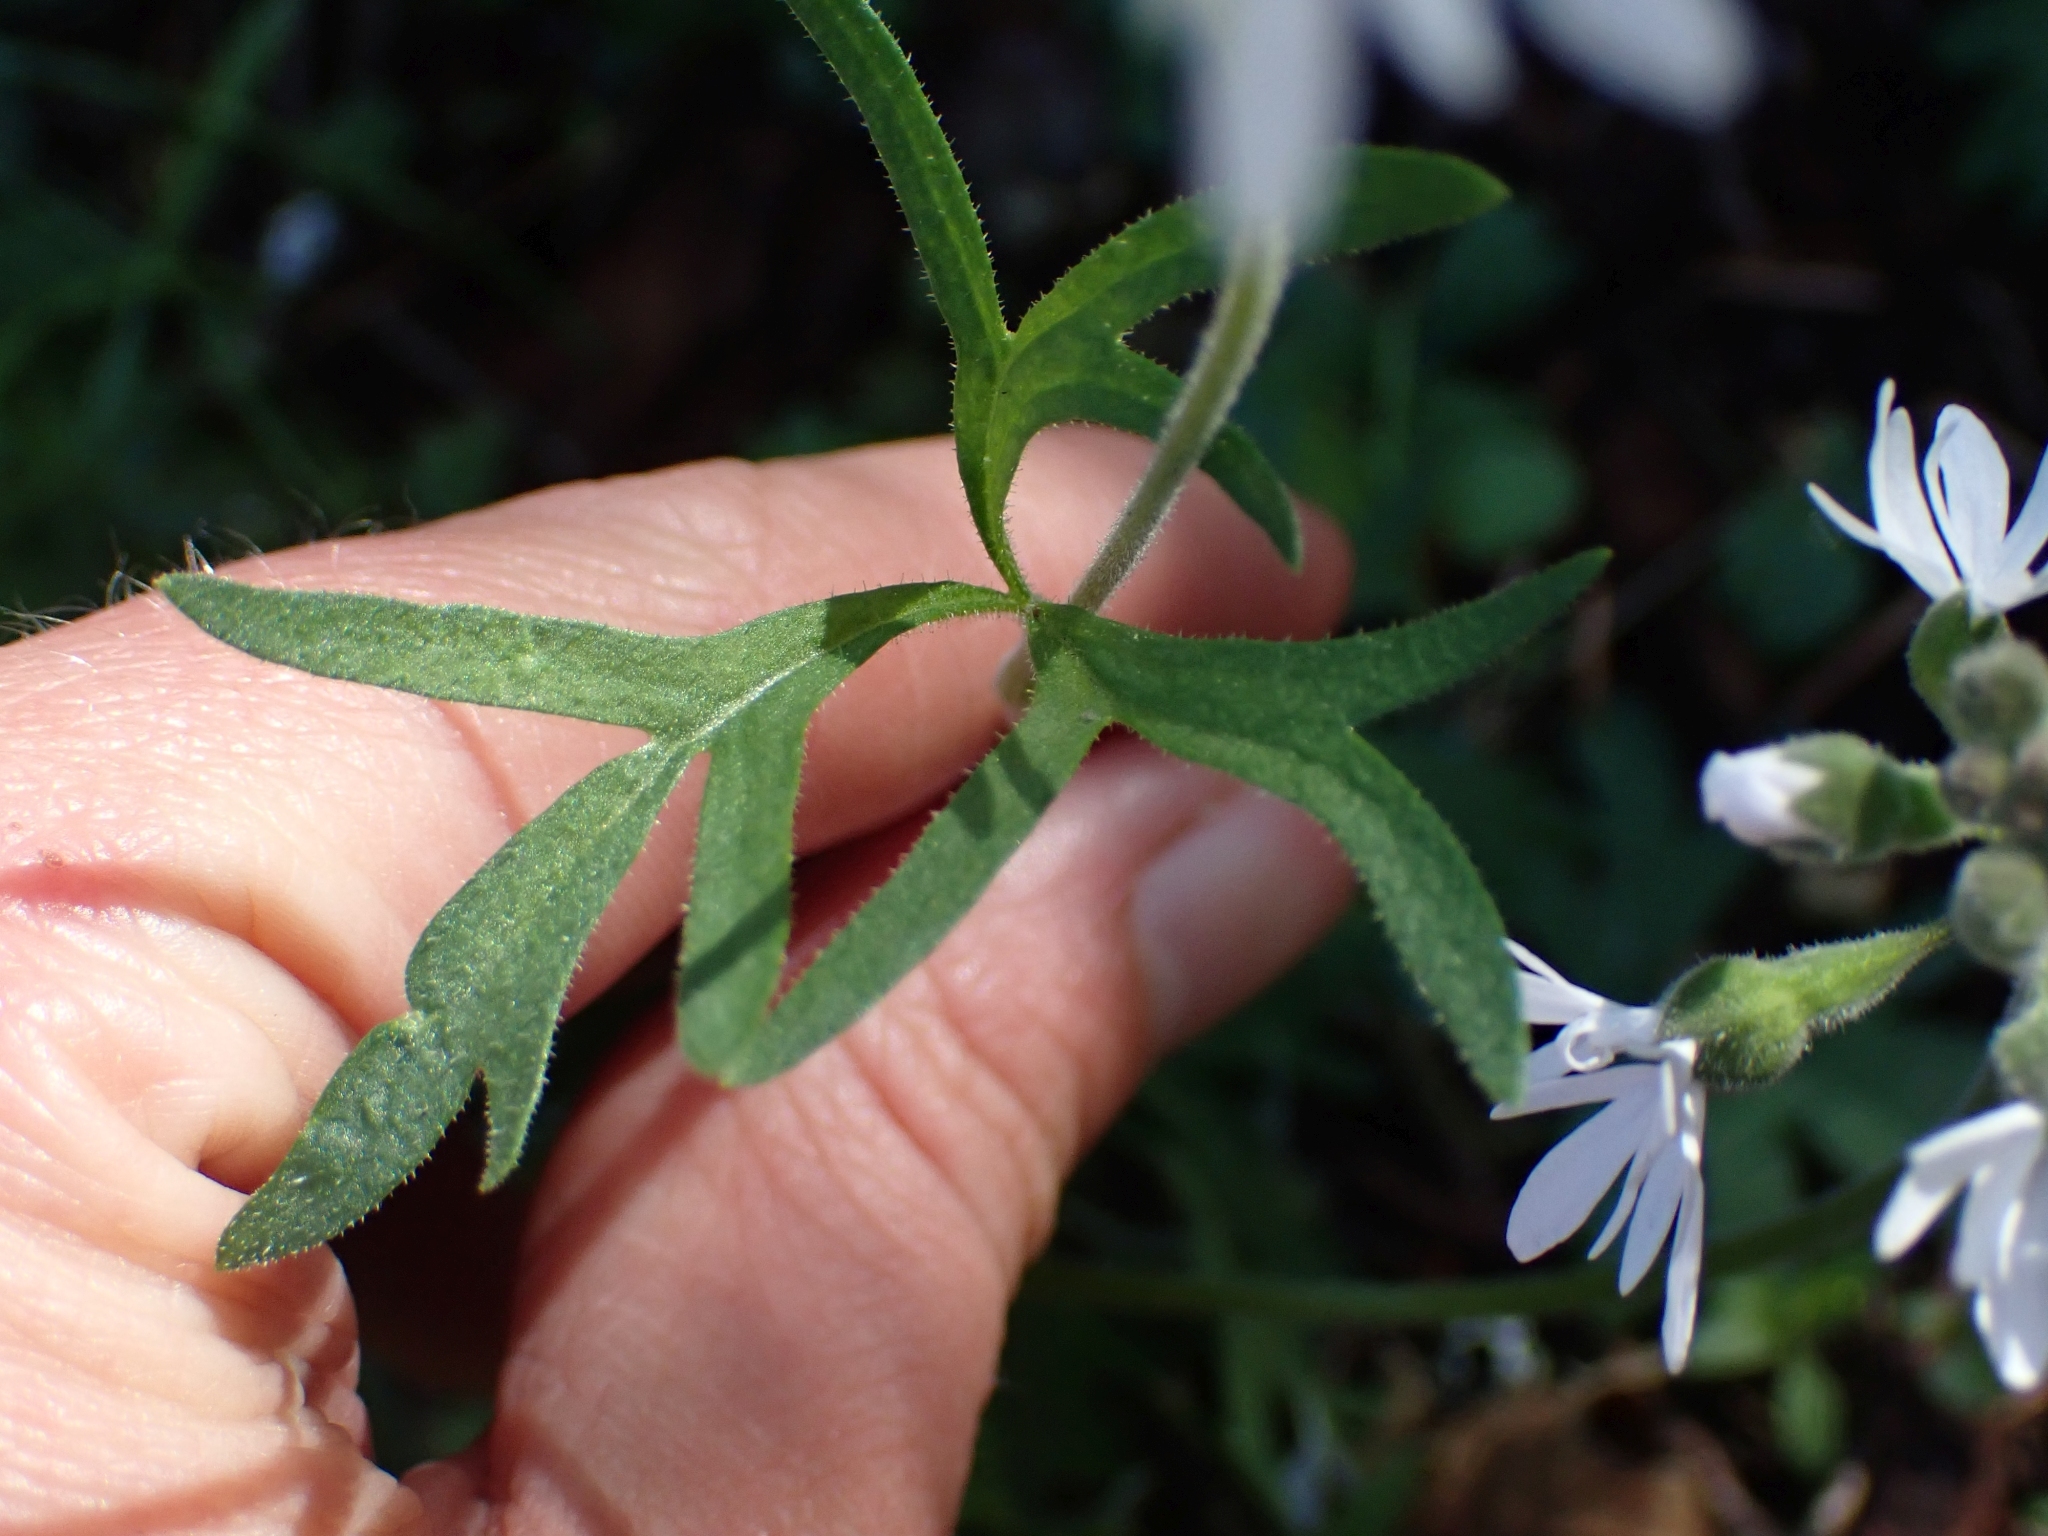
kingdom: Plantae
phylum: Tracheophyta
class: Magnoliopsida
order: Saxifragales
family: Saxifragaceae
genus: Lithophragma
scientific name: Lithophragma parviflorum
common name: Small-flowered fringe-cup
